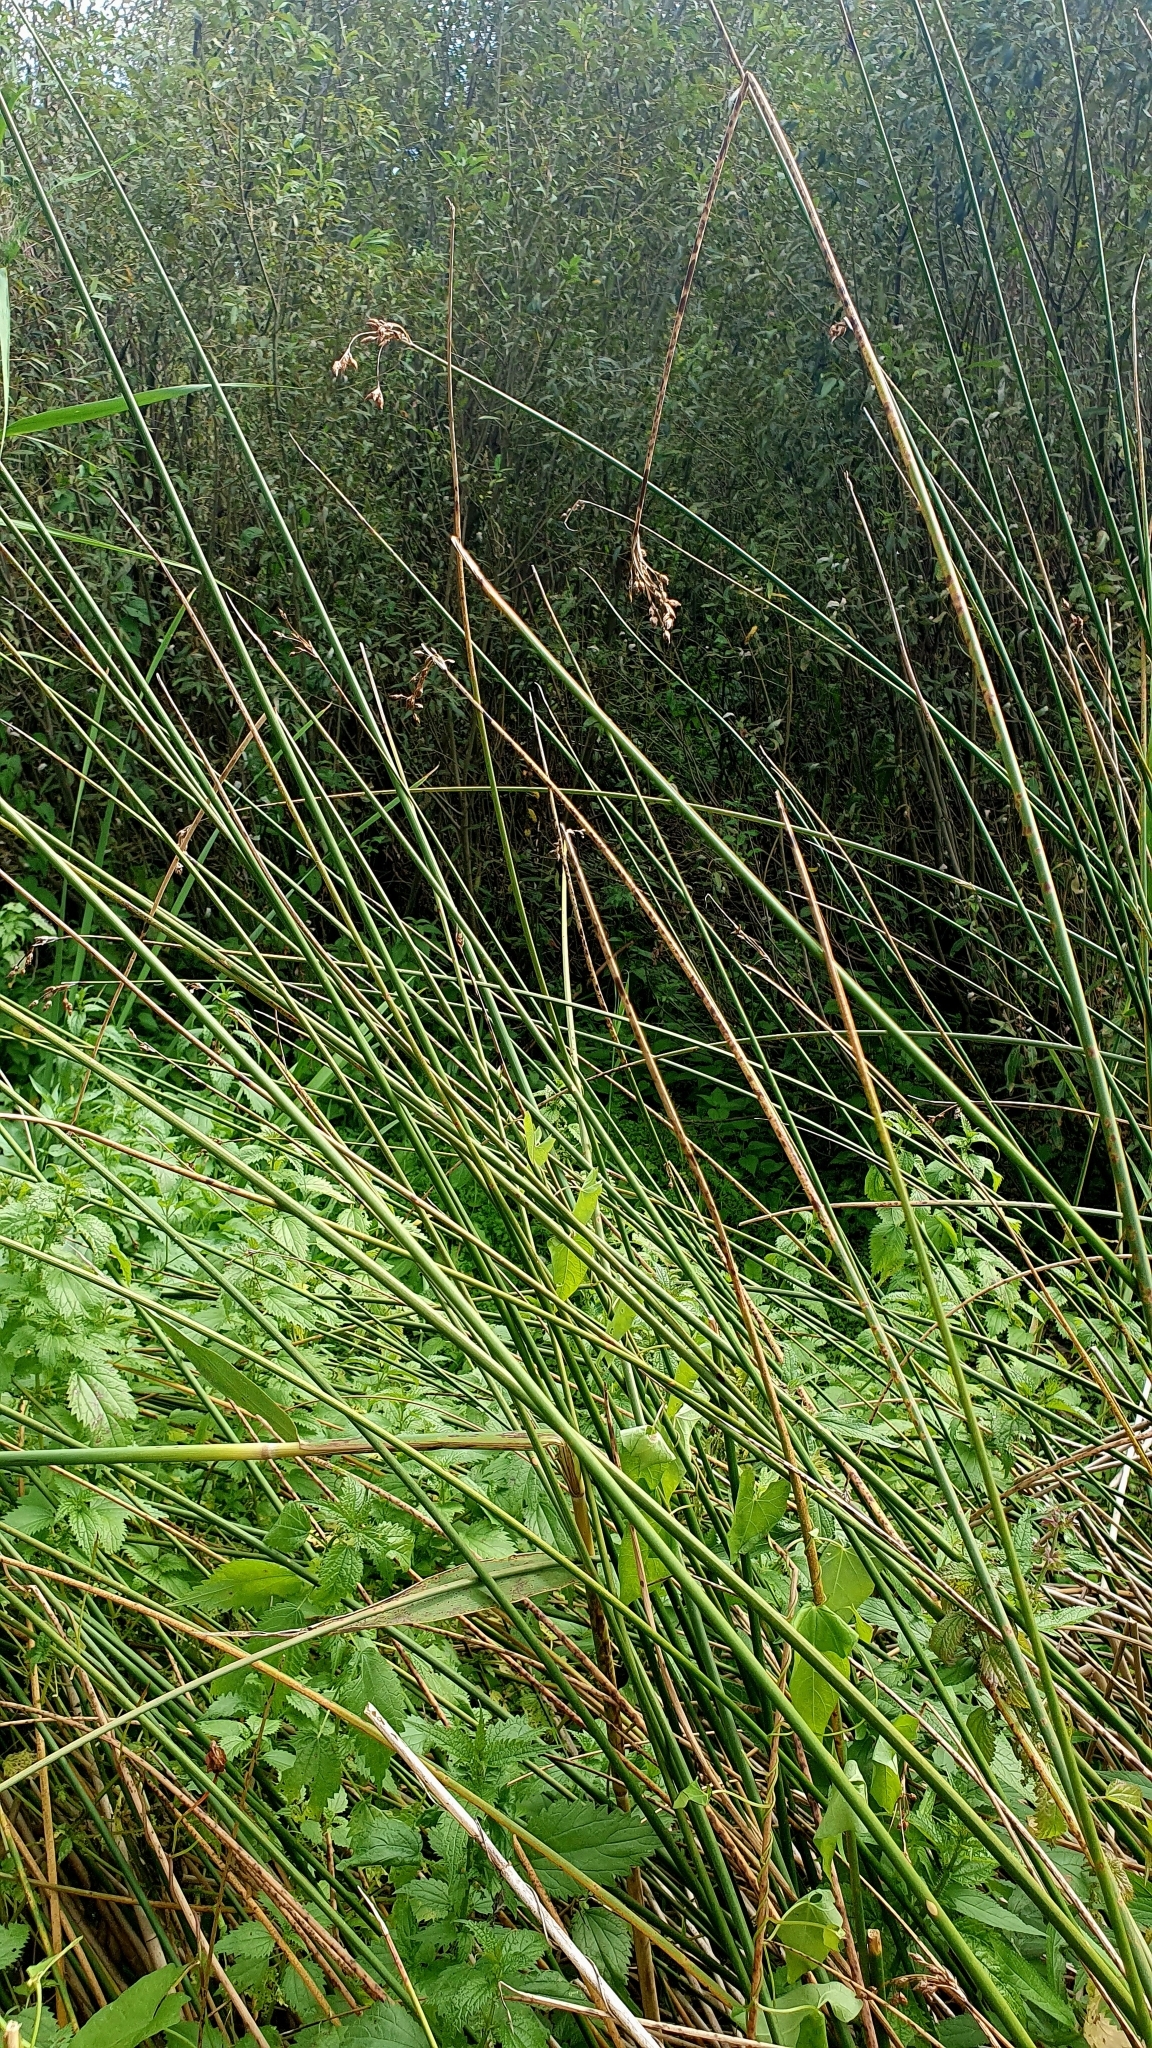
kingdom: Plantae
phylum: Tracheophyta
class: Liliopsida
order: Poales
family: Cyperaceae
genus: Schoenoplectus
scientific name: Schoenoplectus lacustris
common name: Common club-rush
